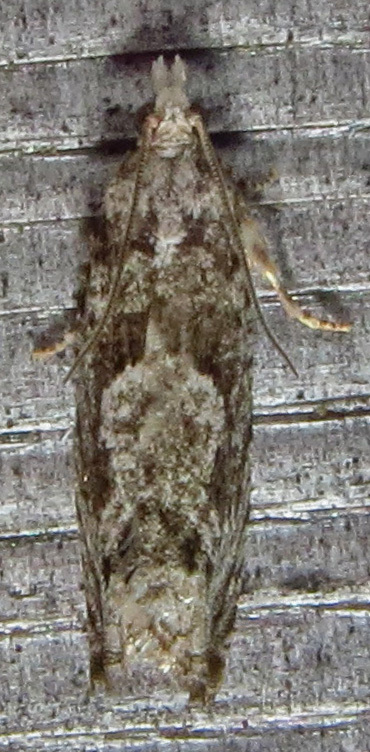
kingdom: Animalia
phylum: Arthropoda
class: Insecta
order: Lepidoptera
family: Tortricidae
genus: Catastega
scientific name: Catastega aceriella
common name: Maple trumpet skeletonizer moth
